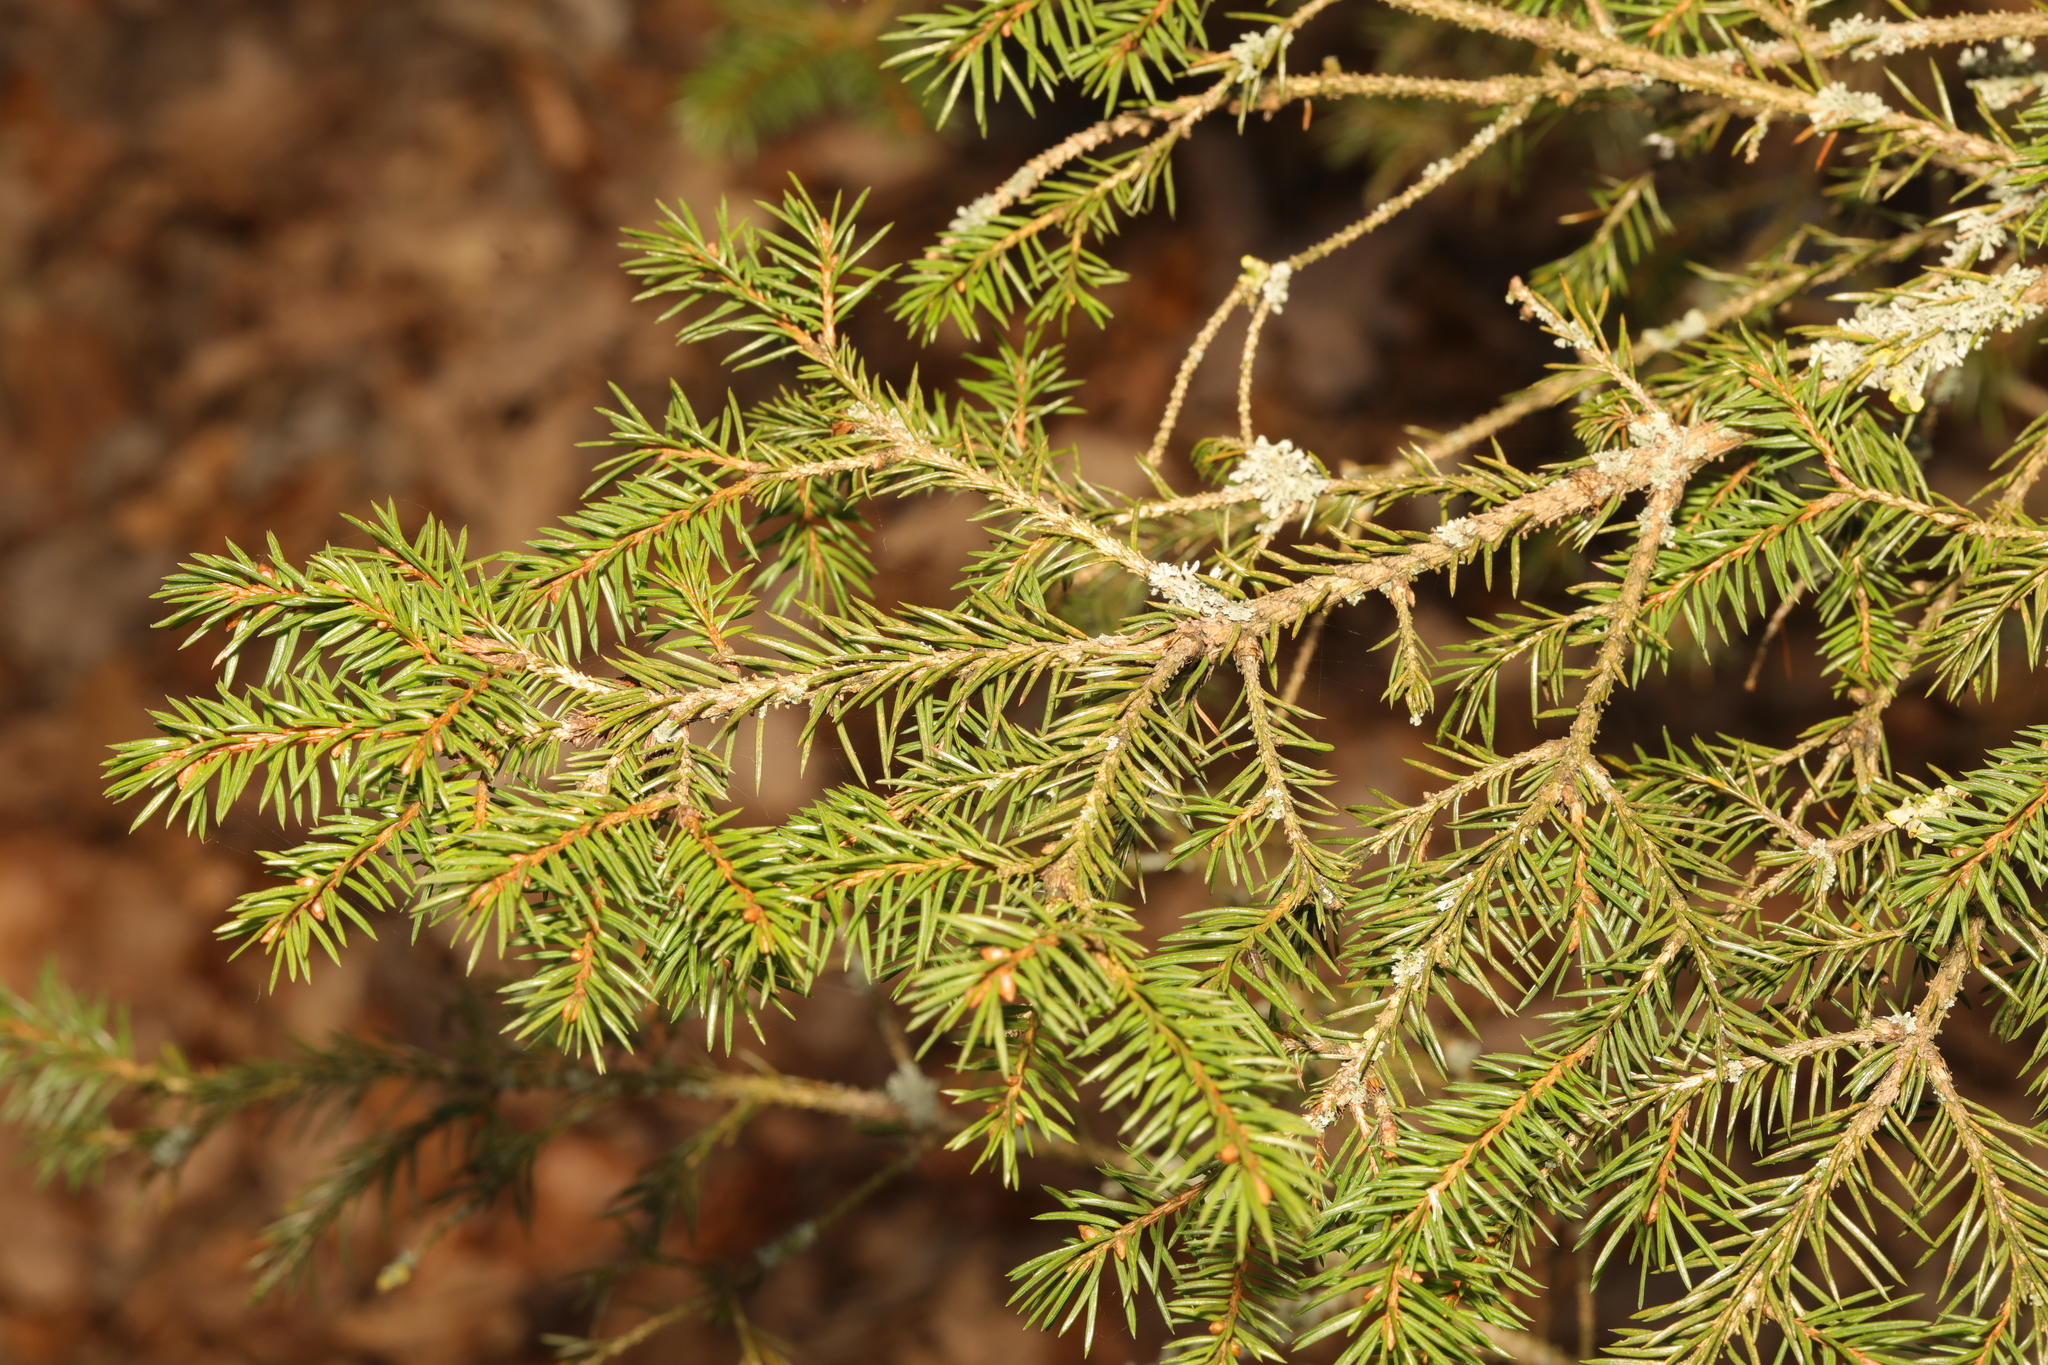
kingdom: Plantae
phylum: Tracheophyta
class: Pinopsida
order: Pinales
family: Pinaceae
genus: Picea
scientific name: Picea abies
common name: Norway spruce
